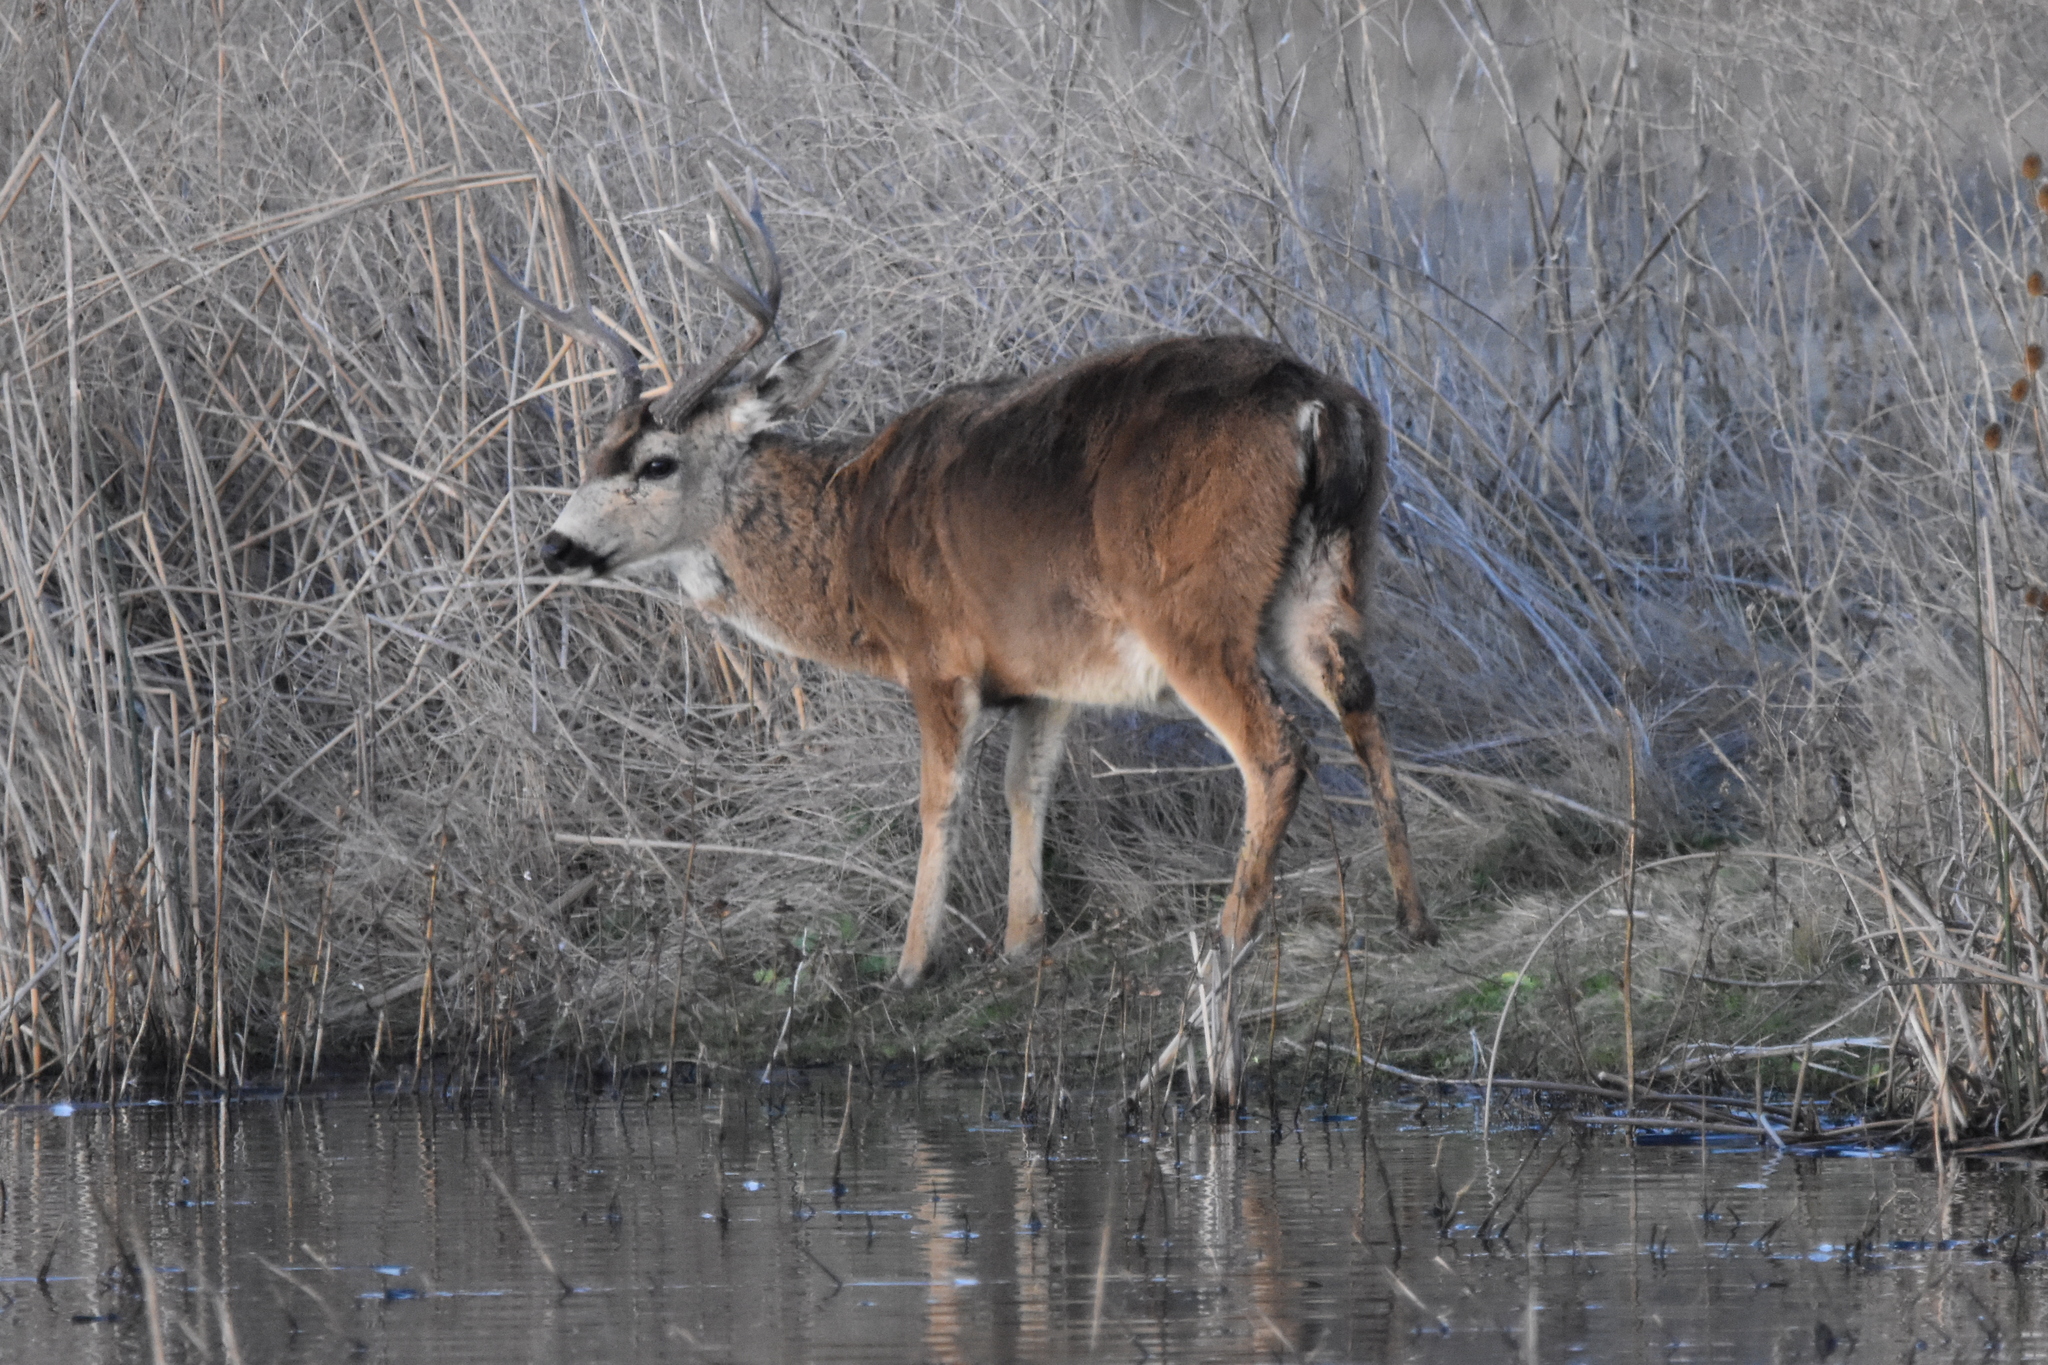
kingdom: Animalia
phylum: Chordata
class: Mammalia
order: Artiodactyla
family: Cervidae
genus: Odocoileus
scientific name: Odocoileus hemionus
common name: Mule deer
